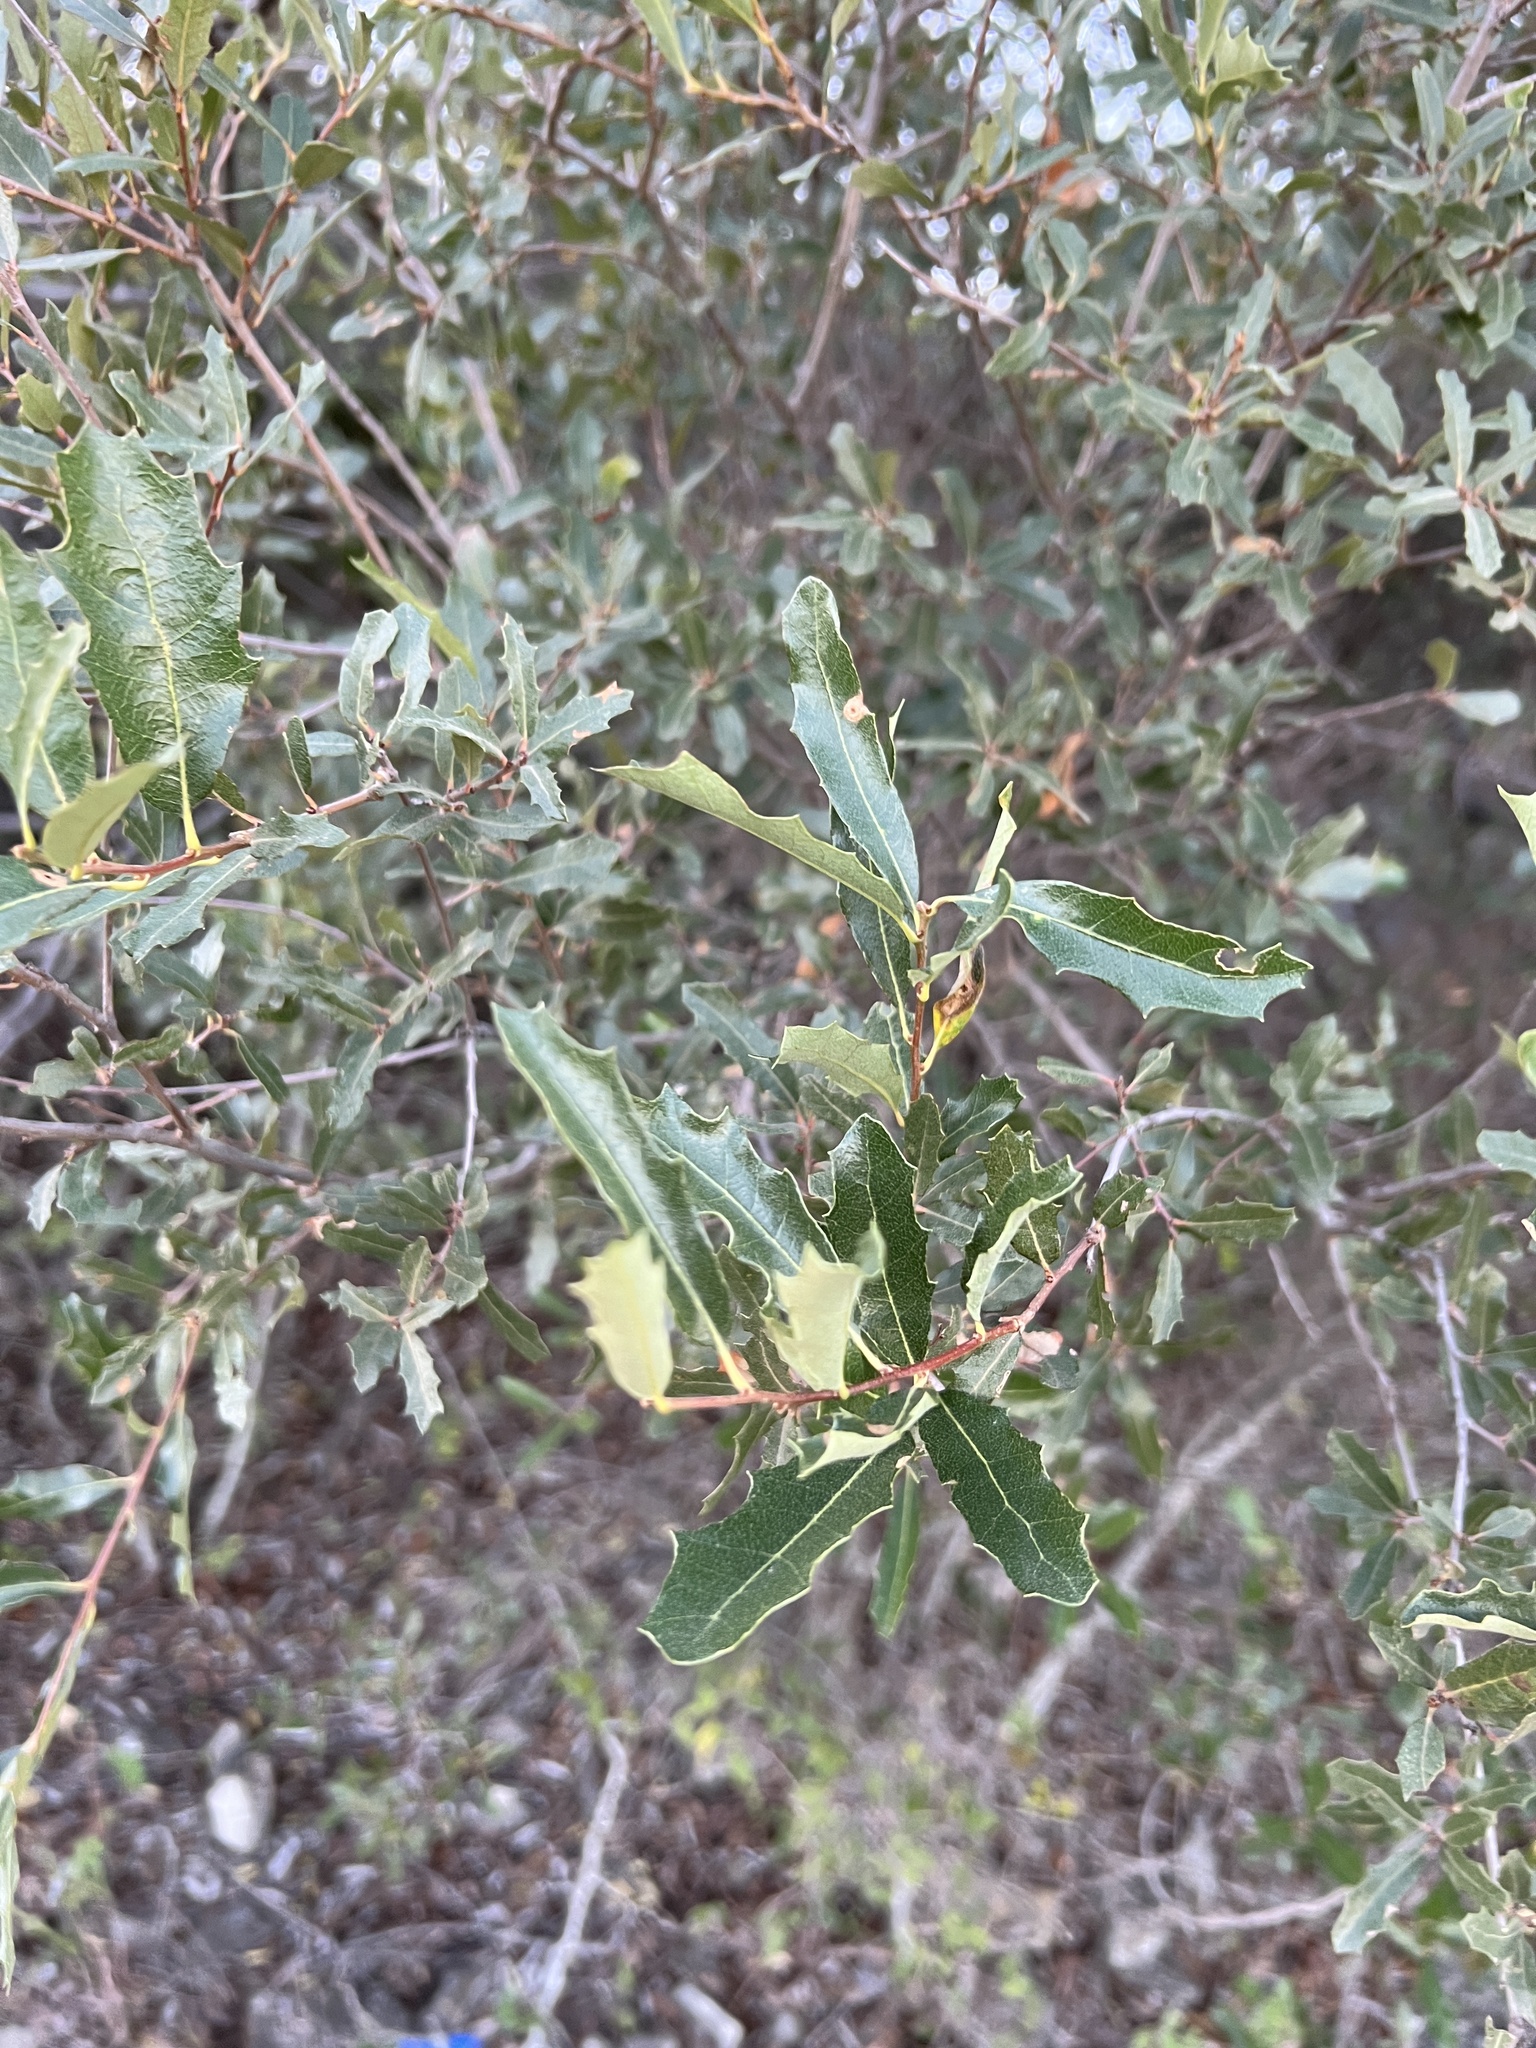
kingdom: Plantae
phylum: Tracheophyta
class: Magnoliopsida
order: Fagales
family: Fagaceae
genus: Quercus
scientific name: Quercus vaseyana
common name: Sandpaper oak
